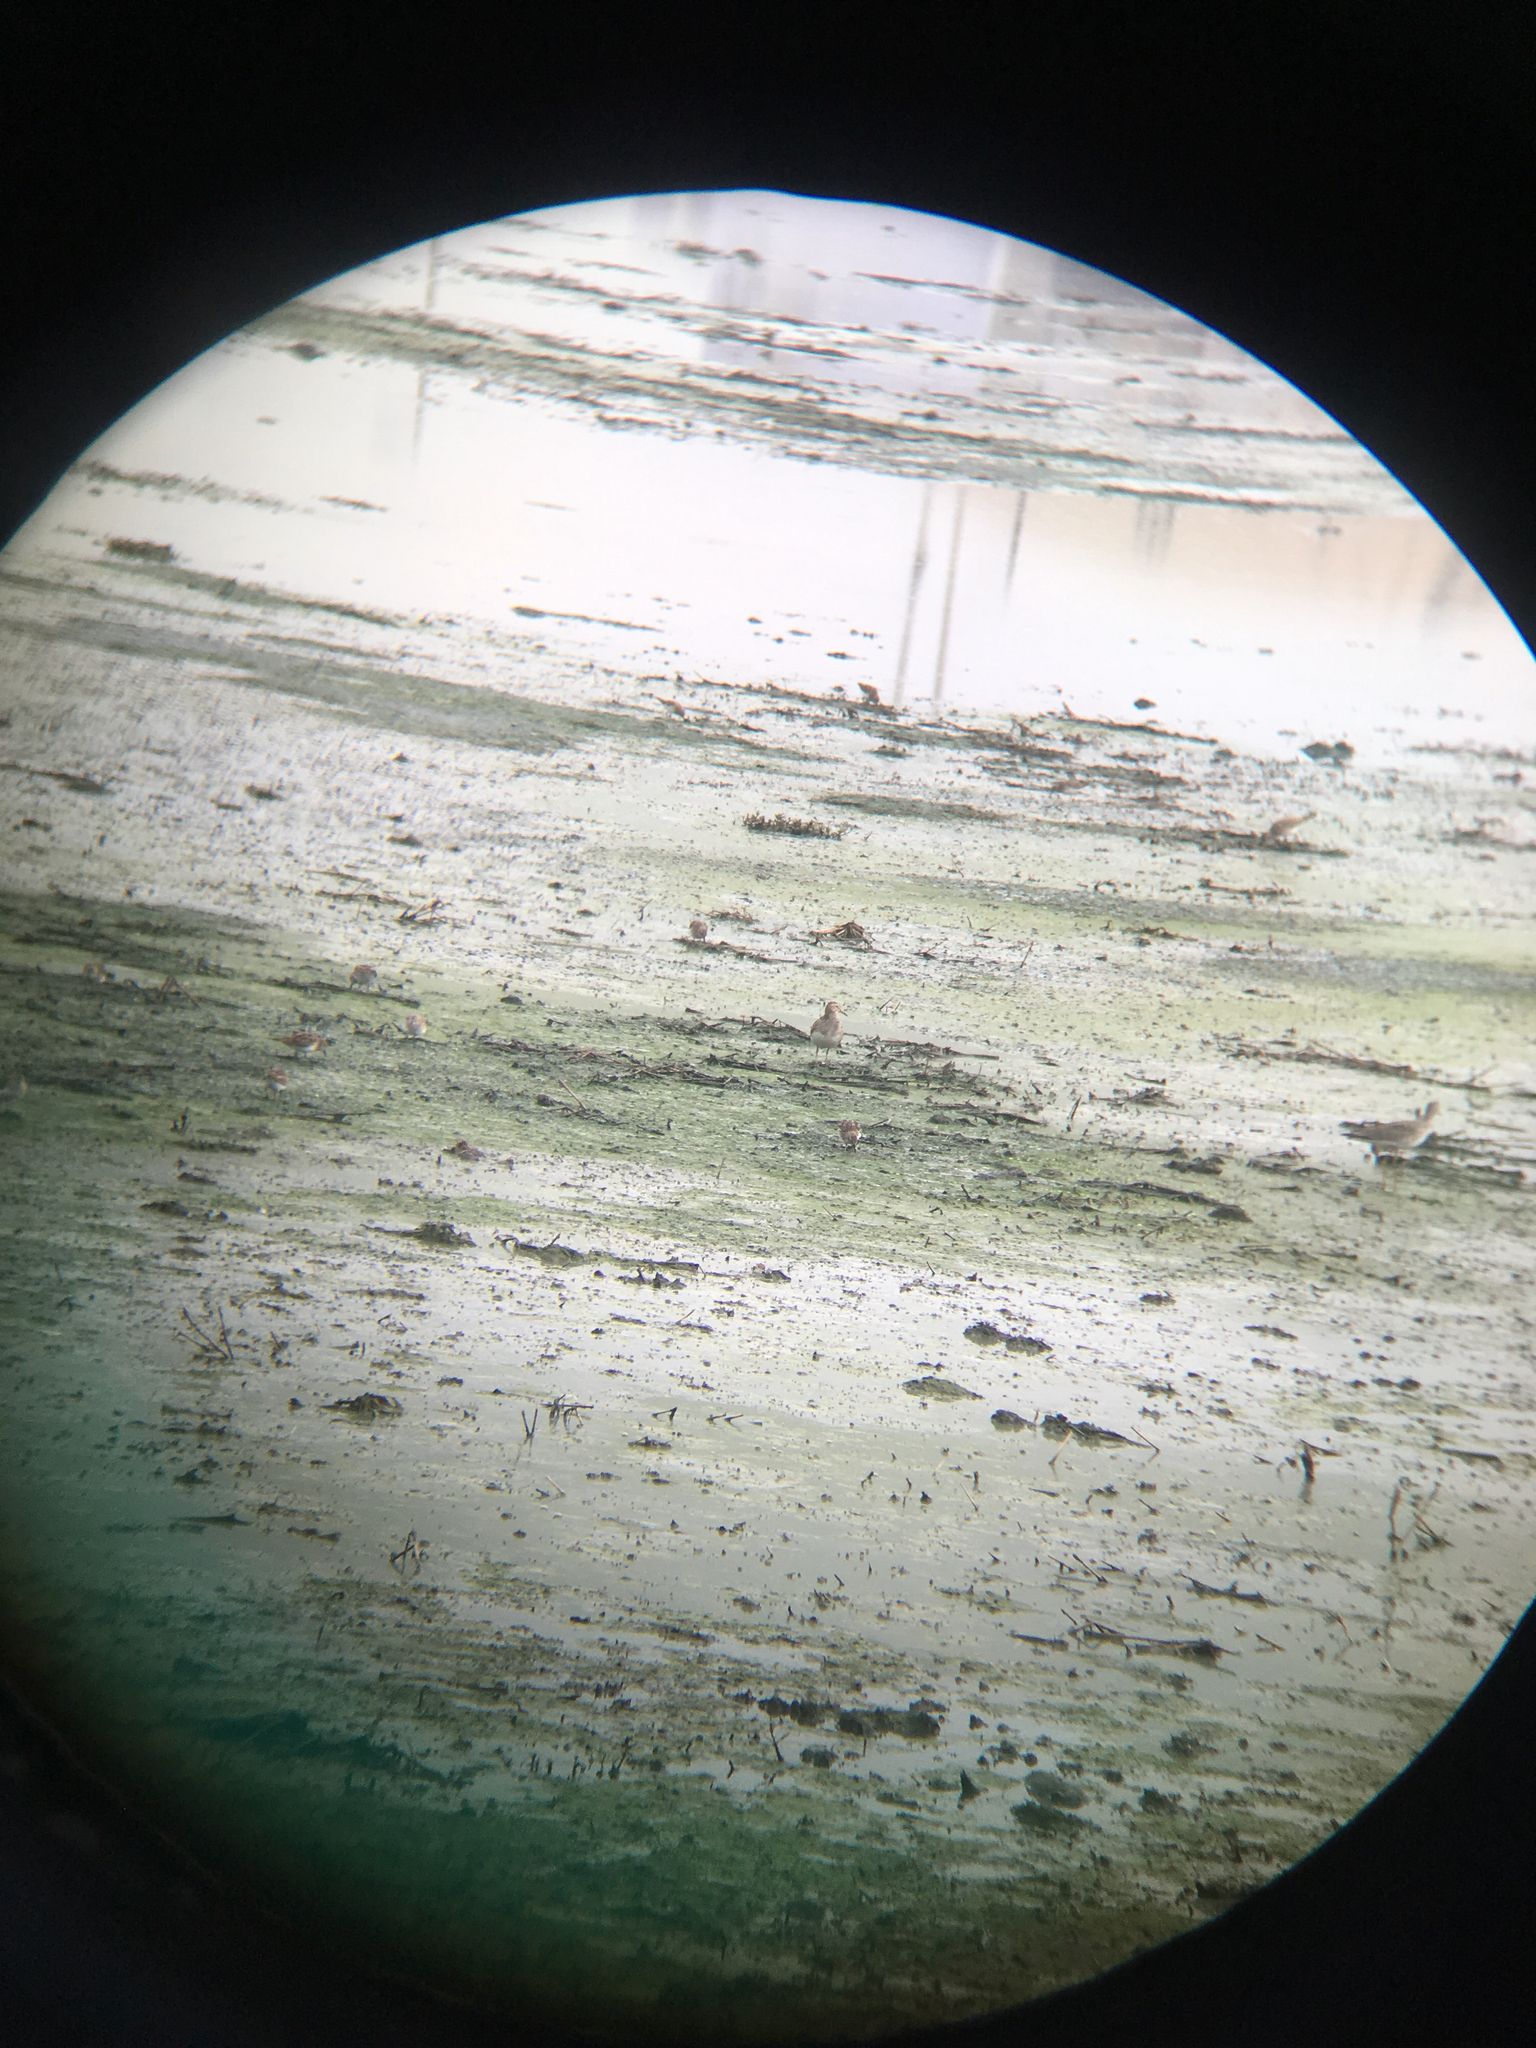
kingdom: Animalia
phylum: Chordata
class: Aves
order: Charadriiformes
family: Scolopacidae
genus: Calidris
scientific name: Calidris melanotos
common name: Pectoral sandpiper
